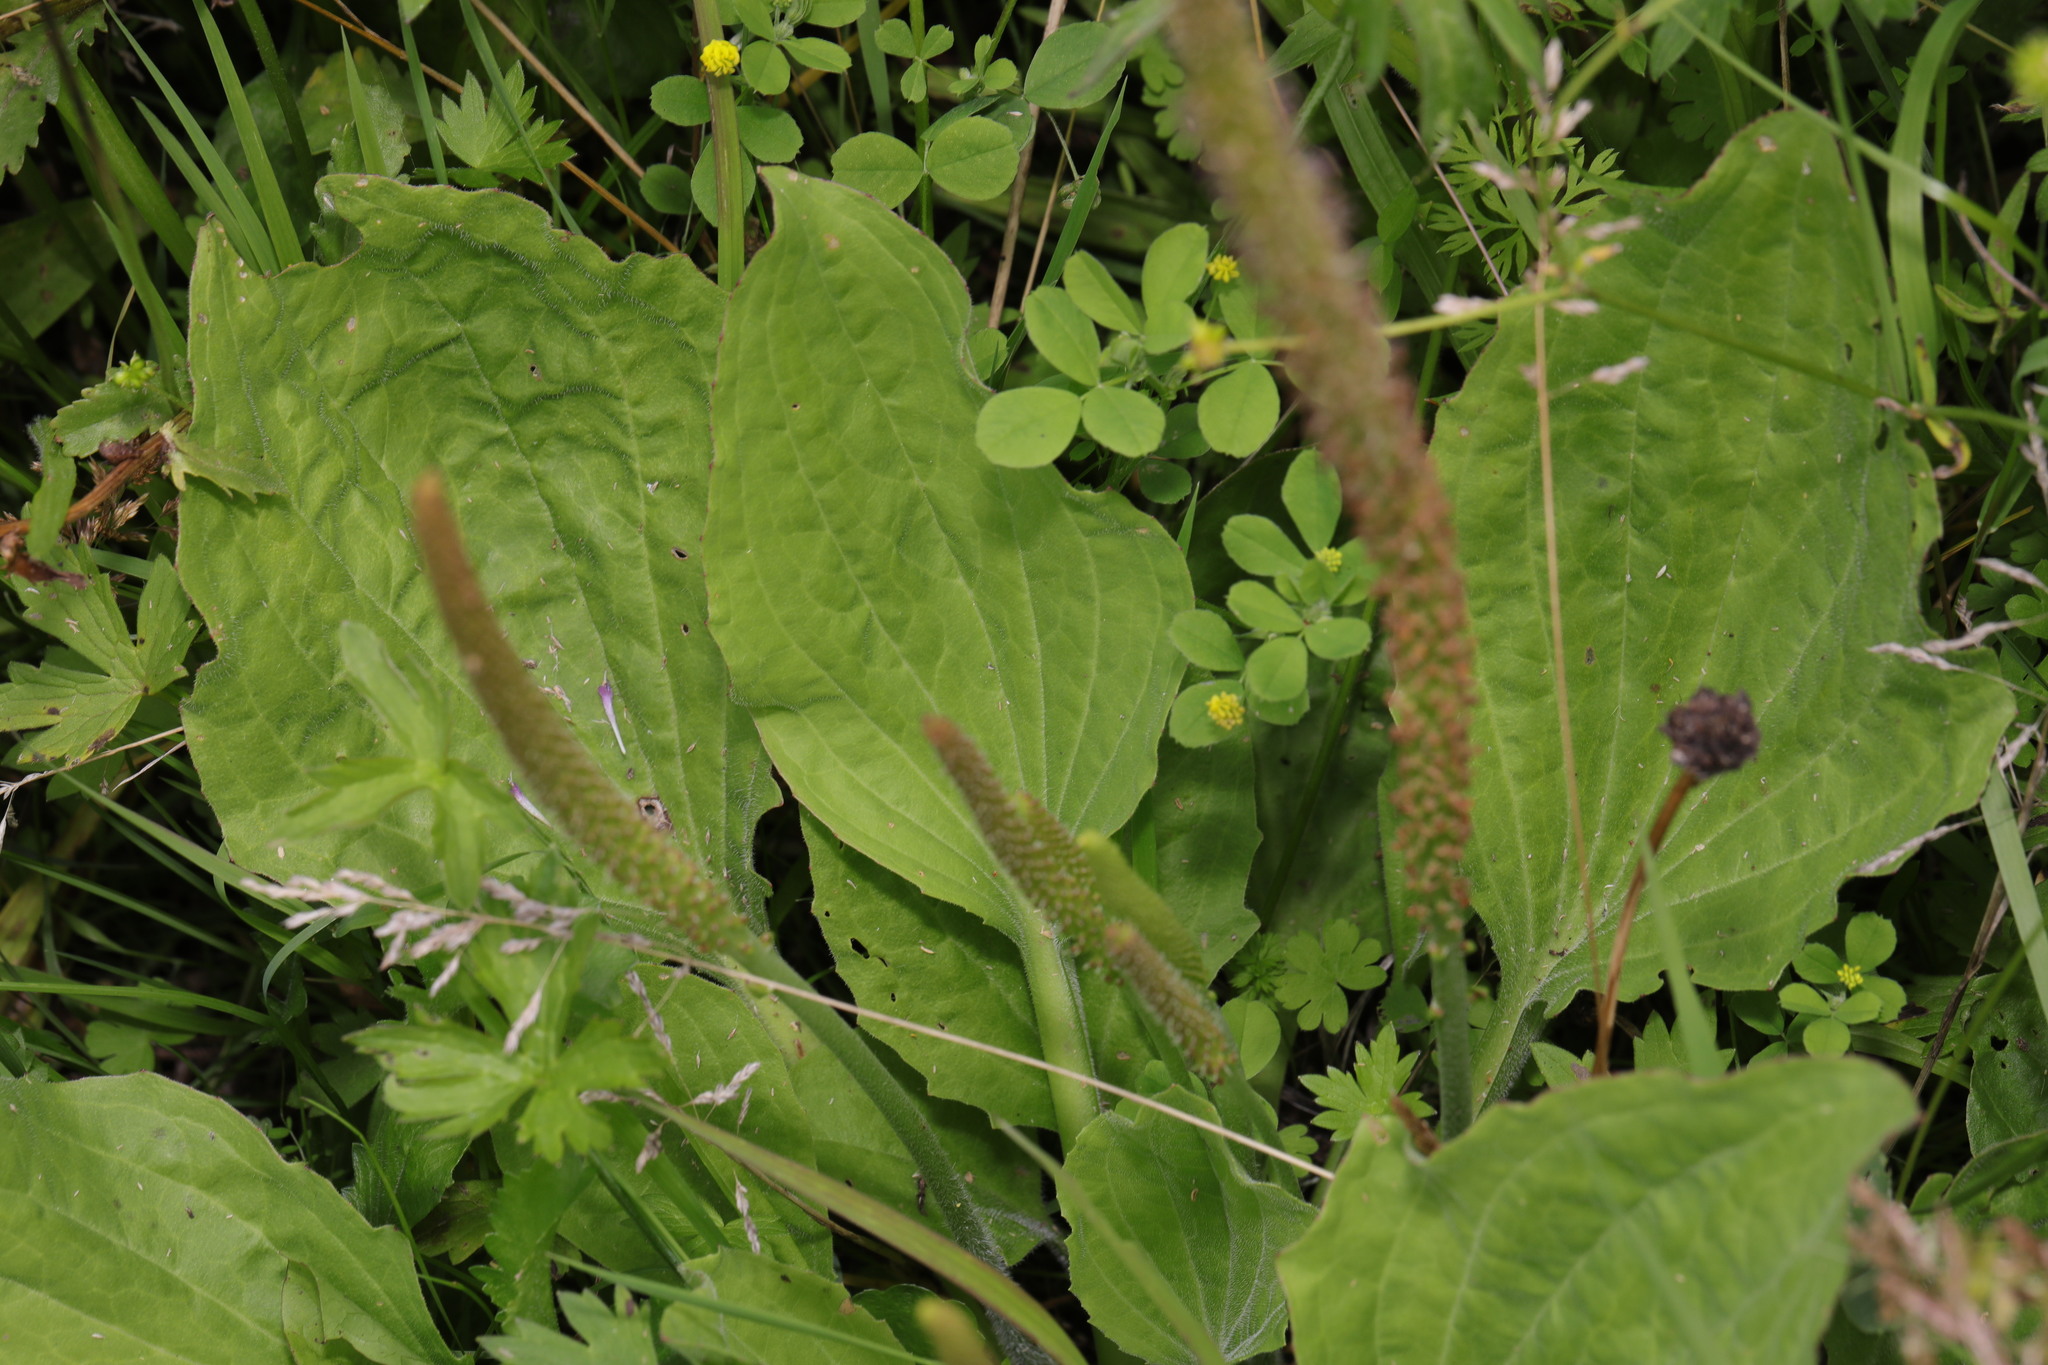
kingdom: Plantae
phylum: Tracheophyta
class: Magnoliopsida
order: Lamiales
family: Plantaginaceae
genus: Plantago
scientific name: Plantago major
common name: Common plantain
